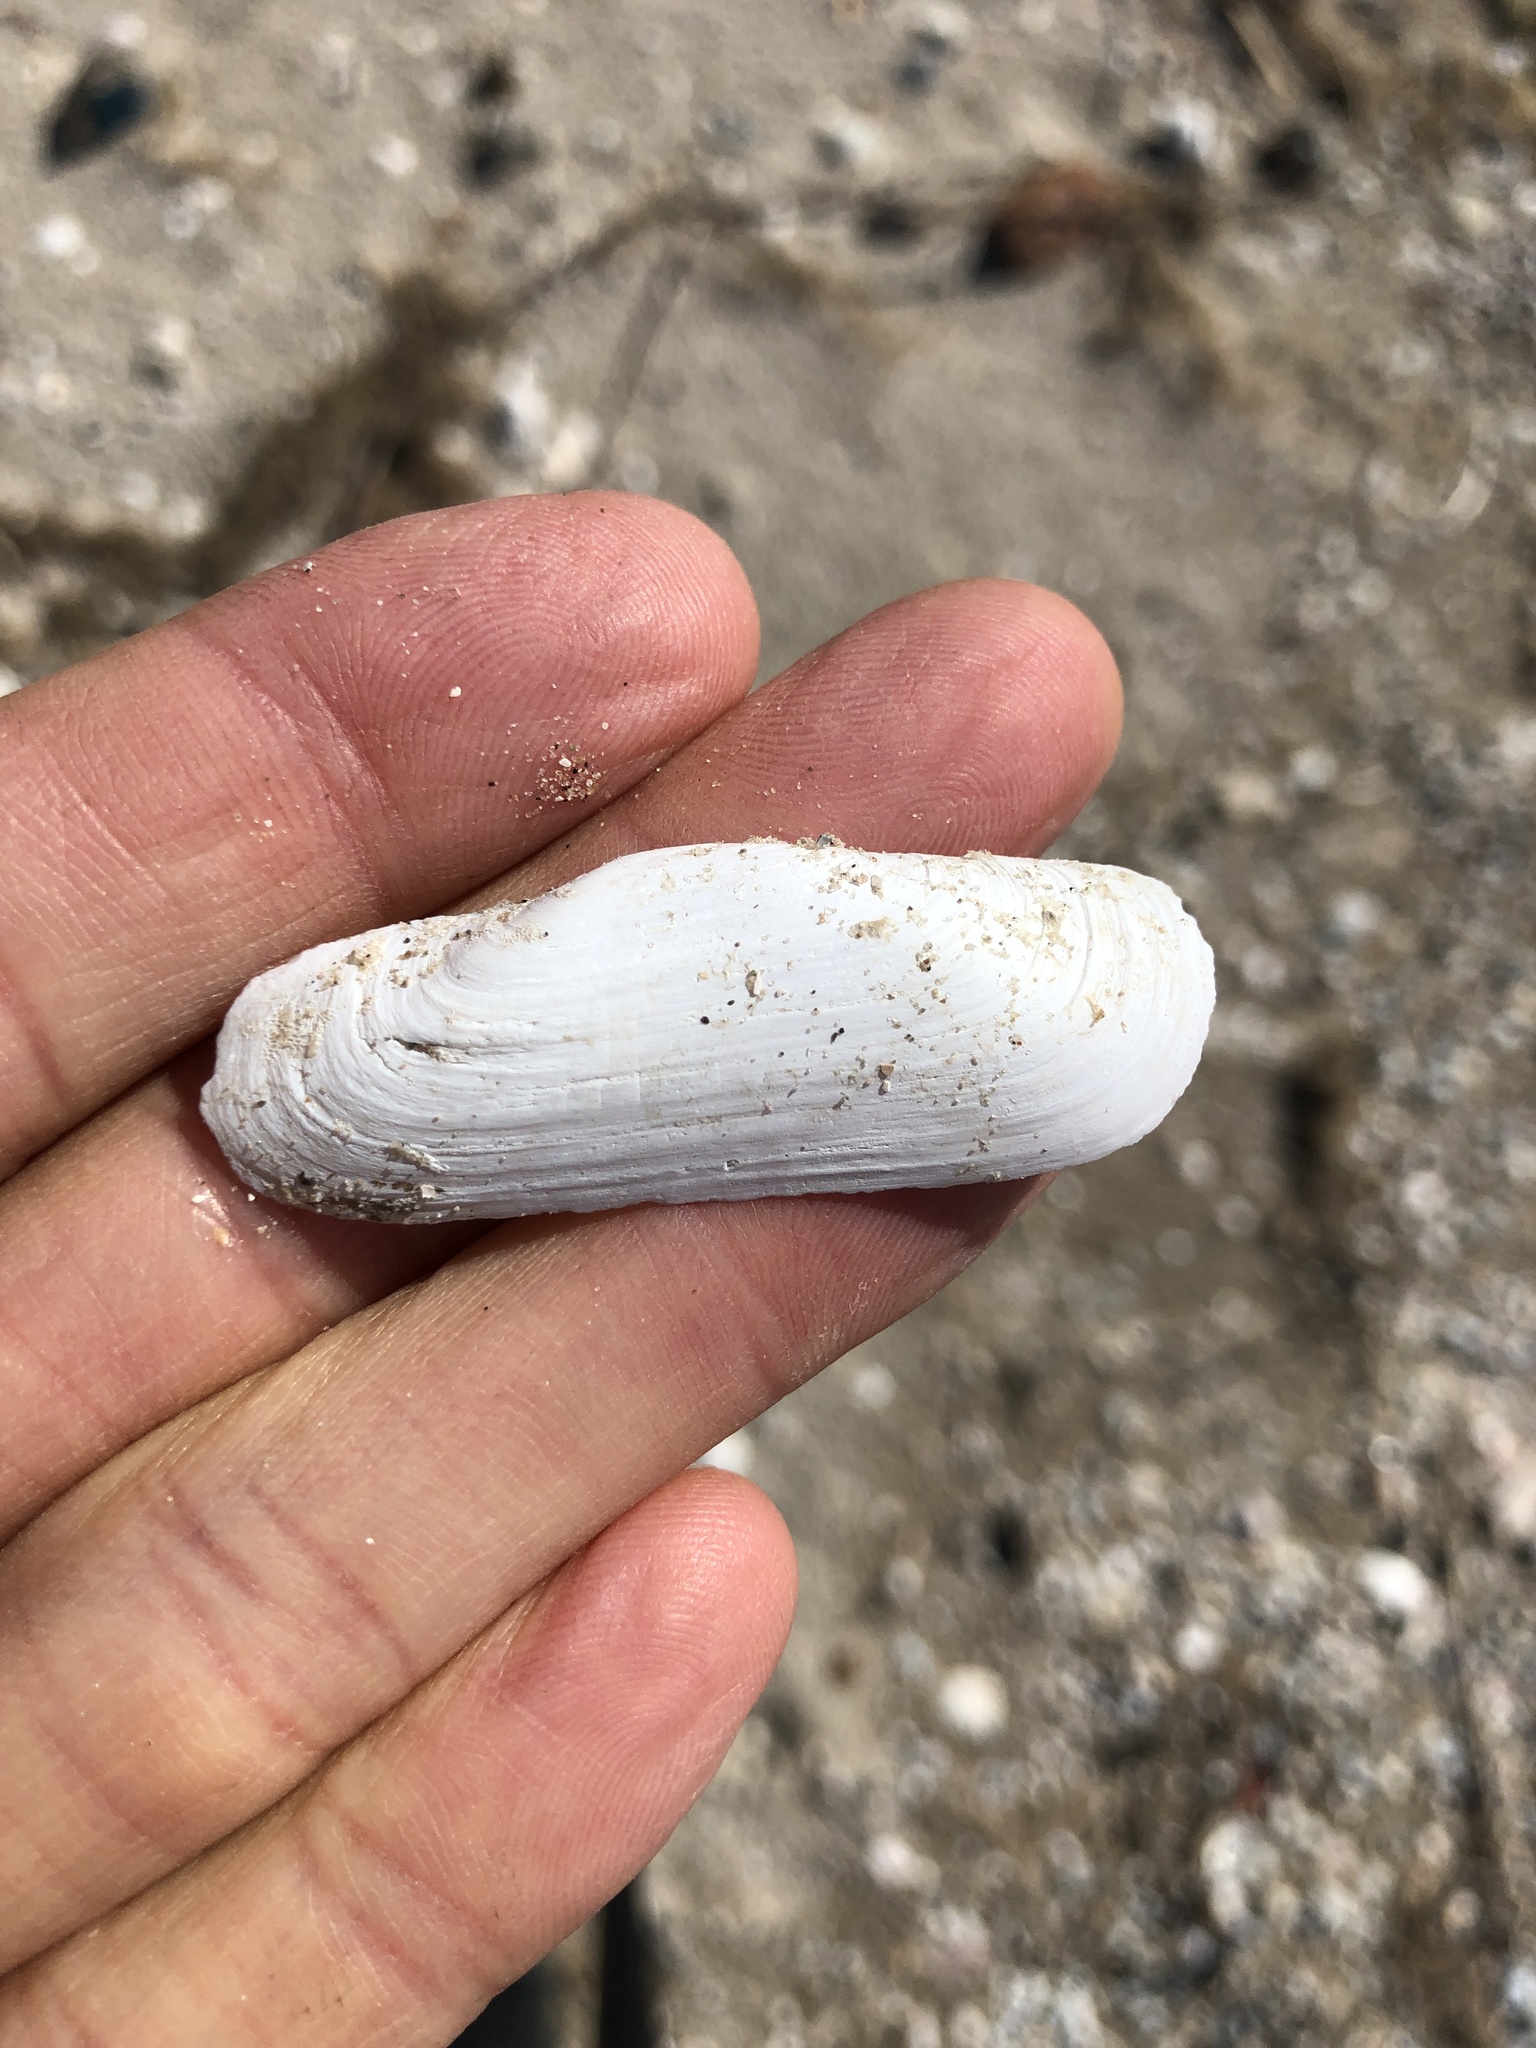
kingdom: Animalia
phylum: Mollusca
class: Bivalvia
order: Cardiida
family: Solecurtidae
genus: Tagelus
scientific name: Tagelus plebeius
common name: Stout tagelus
